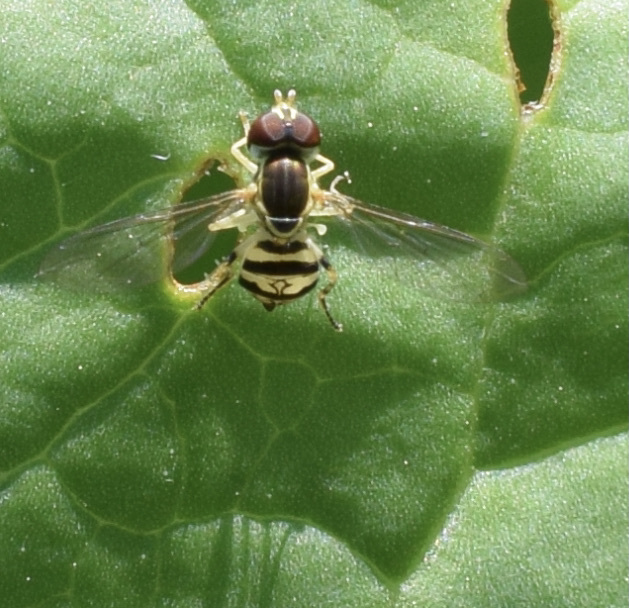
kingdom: Animalia
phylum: Arthropoda
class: Insecta
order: Diptera
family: Syrphidae
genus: Toxomerus
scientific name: Toxomerus geminatus
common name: Eastern calligrapher
